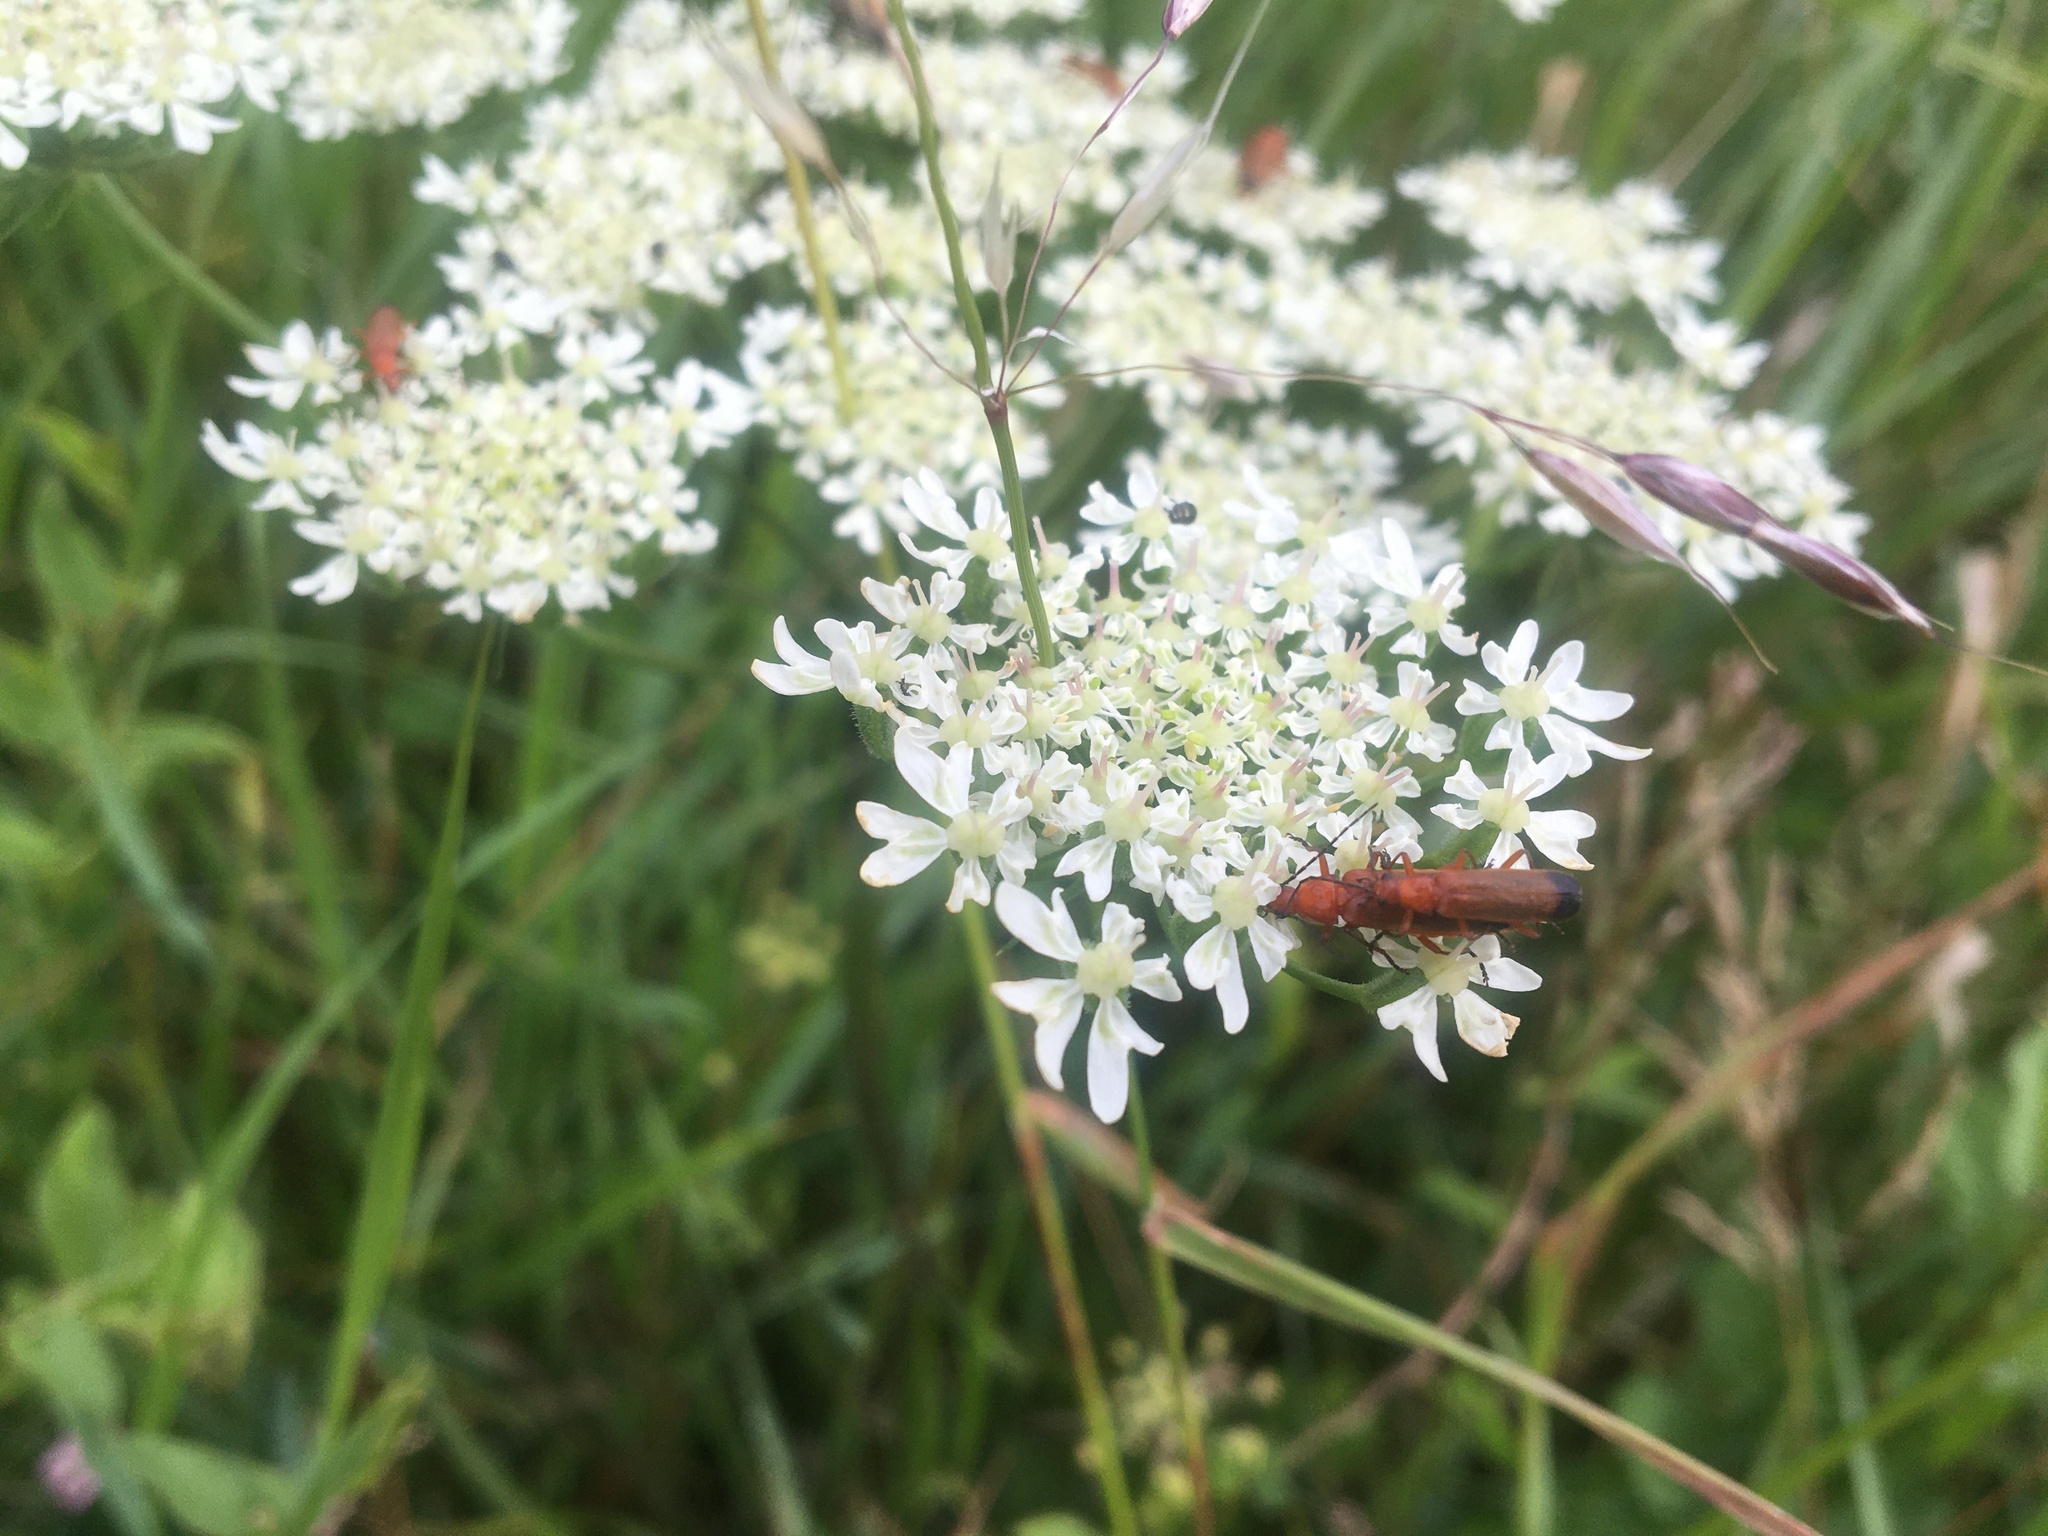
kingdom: Animalia
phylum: Arthropoda
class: Insecta
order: Coleoptera
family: Cantharidae
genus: Rhagonycha
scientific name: Rhagonycha fulva
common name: Common red soldier beetle
